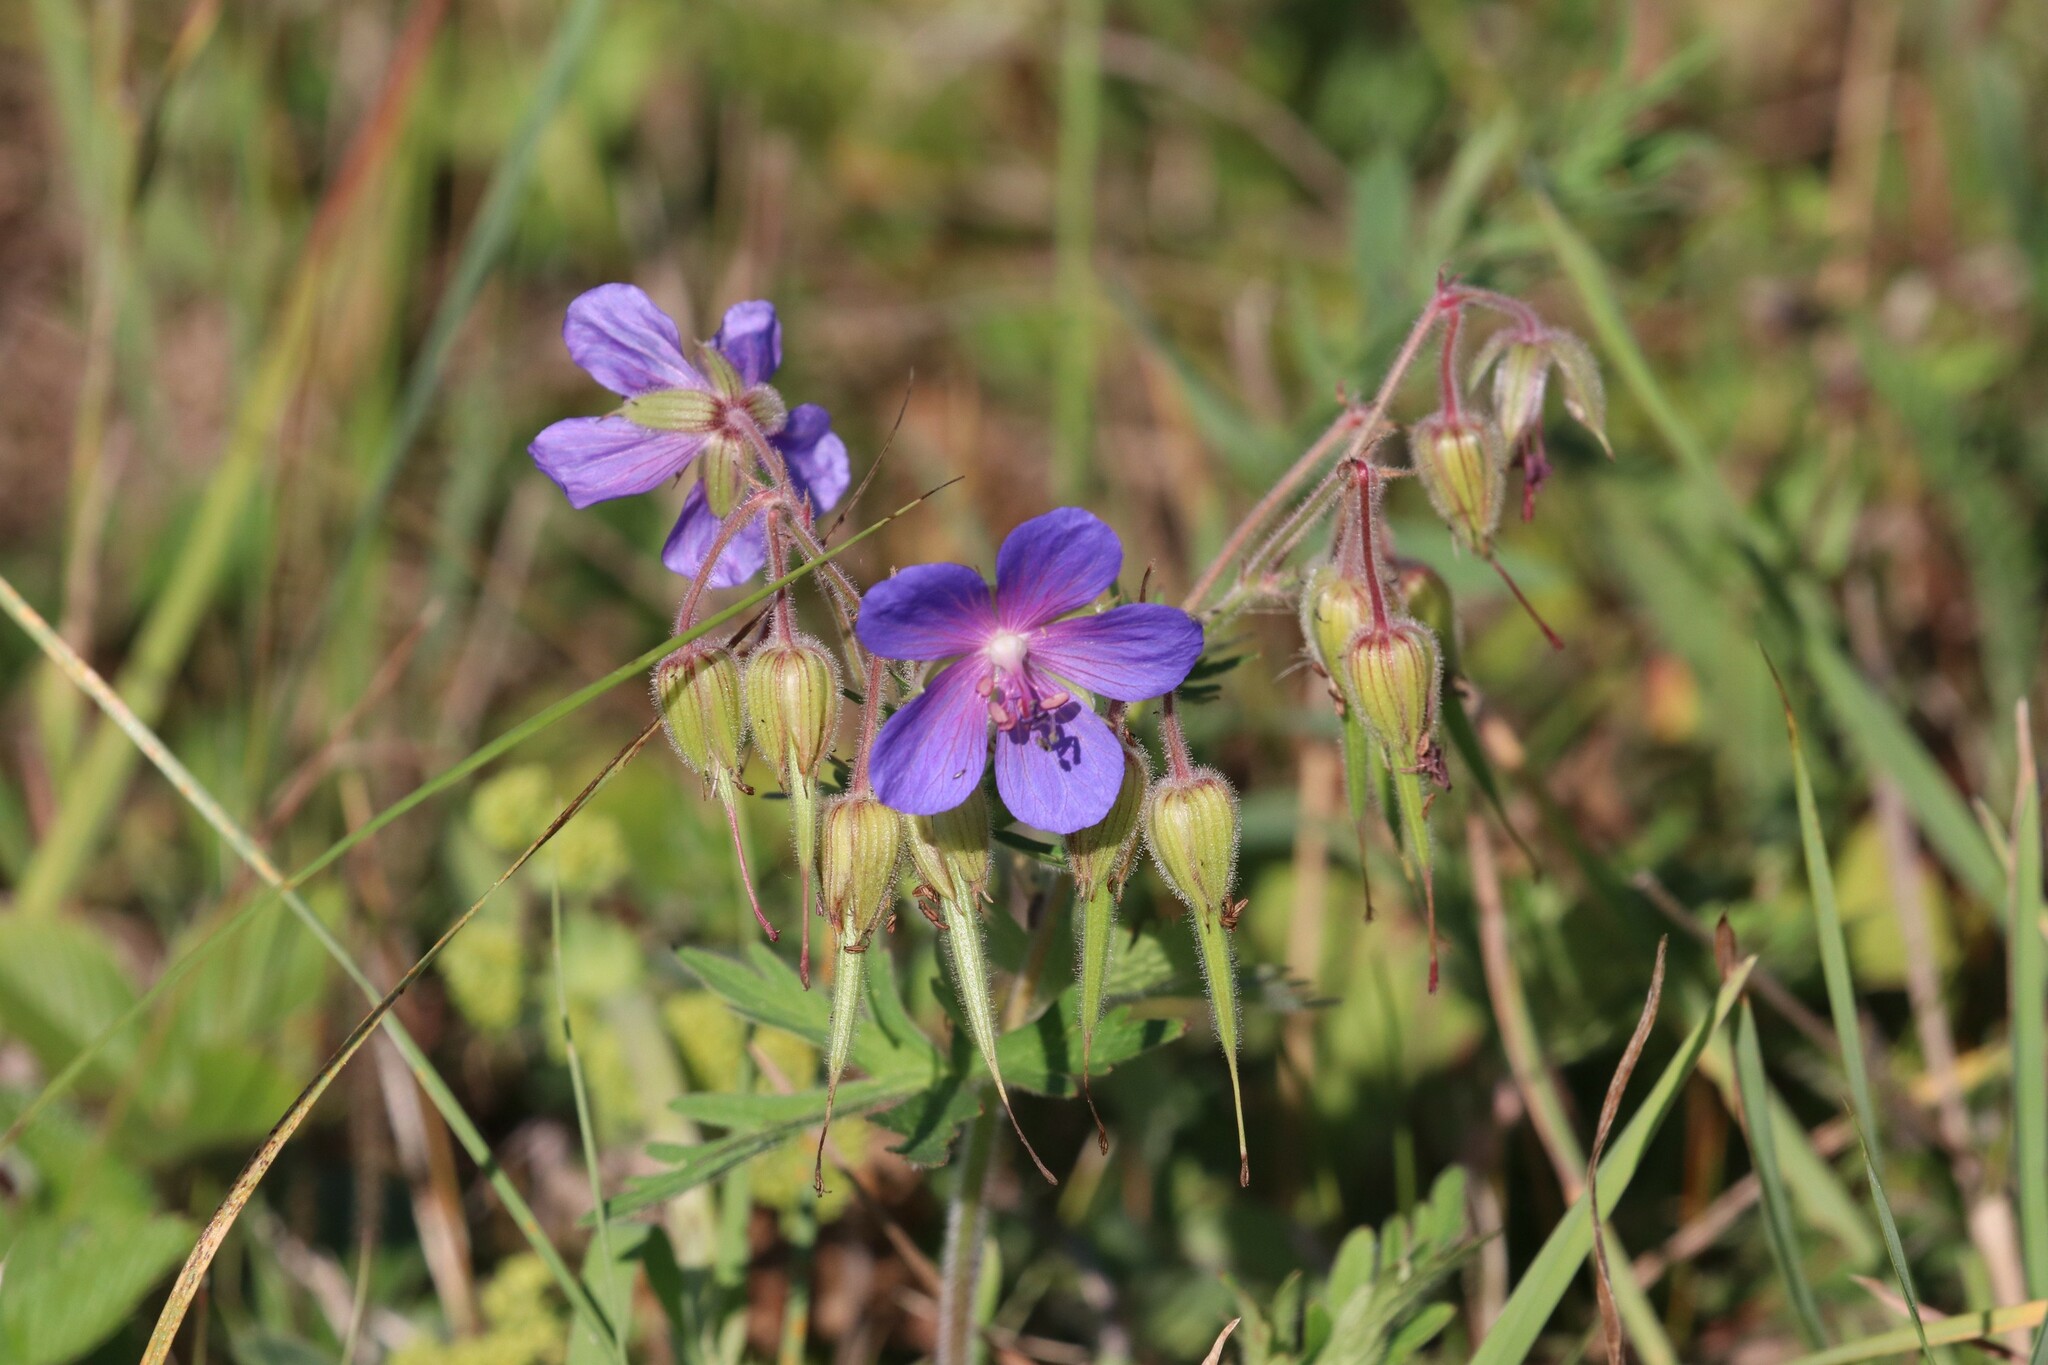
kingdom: Plantae
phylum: Tracheophyta
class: Magnoliopsida
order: Geraniales
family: Geraniaceae
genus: Geranium
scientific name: Geranium pratense
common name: Meadow crane's-bill
